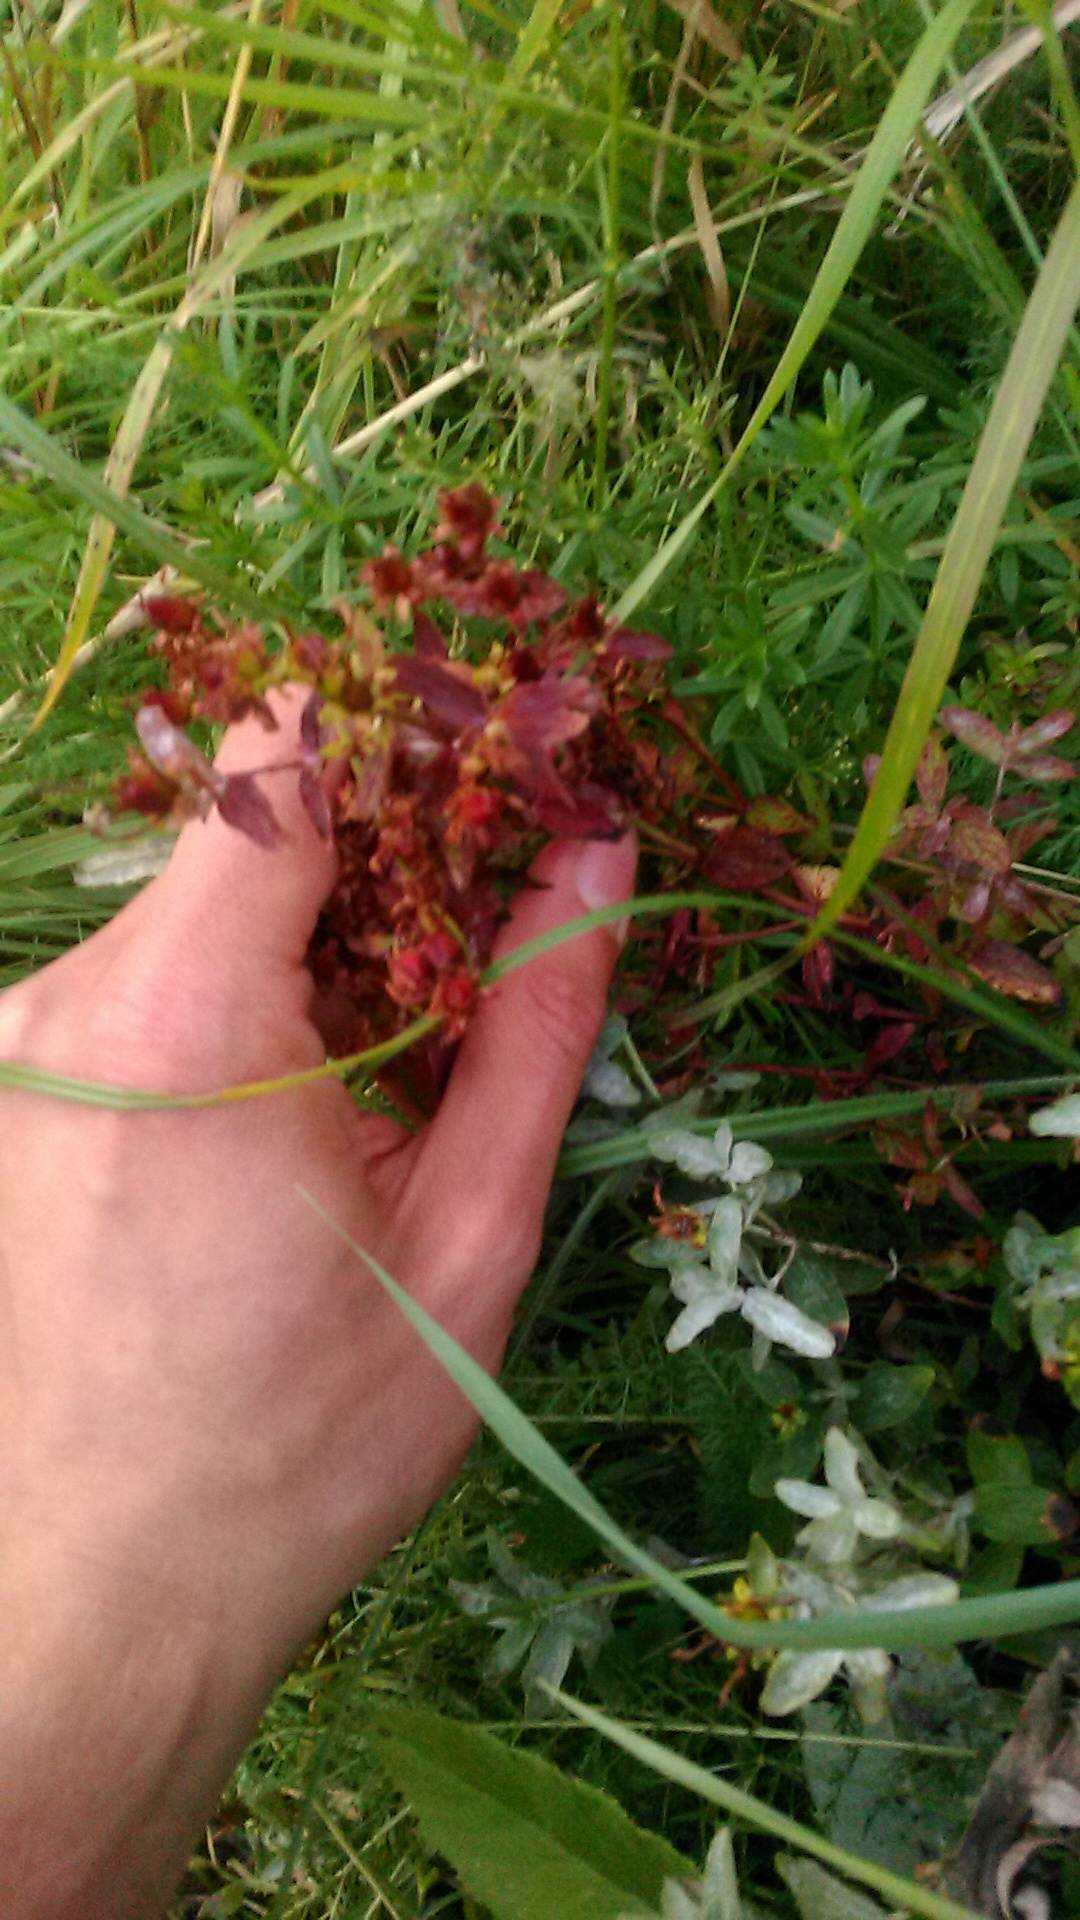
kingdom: Plantae
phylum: Tracheophyta
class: Magnoliopsida
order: Malpighiales
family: Hypericaceae
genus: Hypericum
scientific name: Hypericum perforatum
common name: Common st. johnswort
